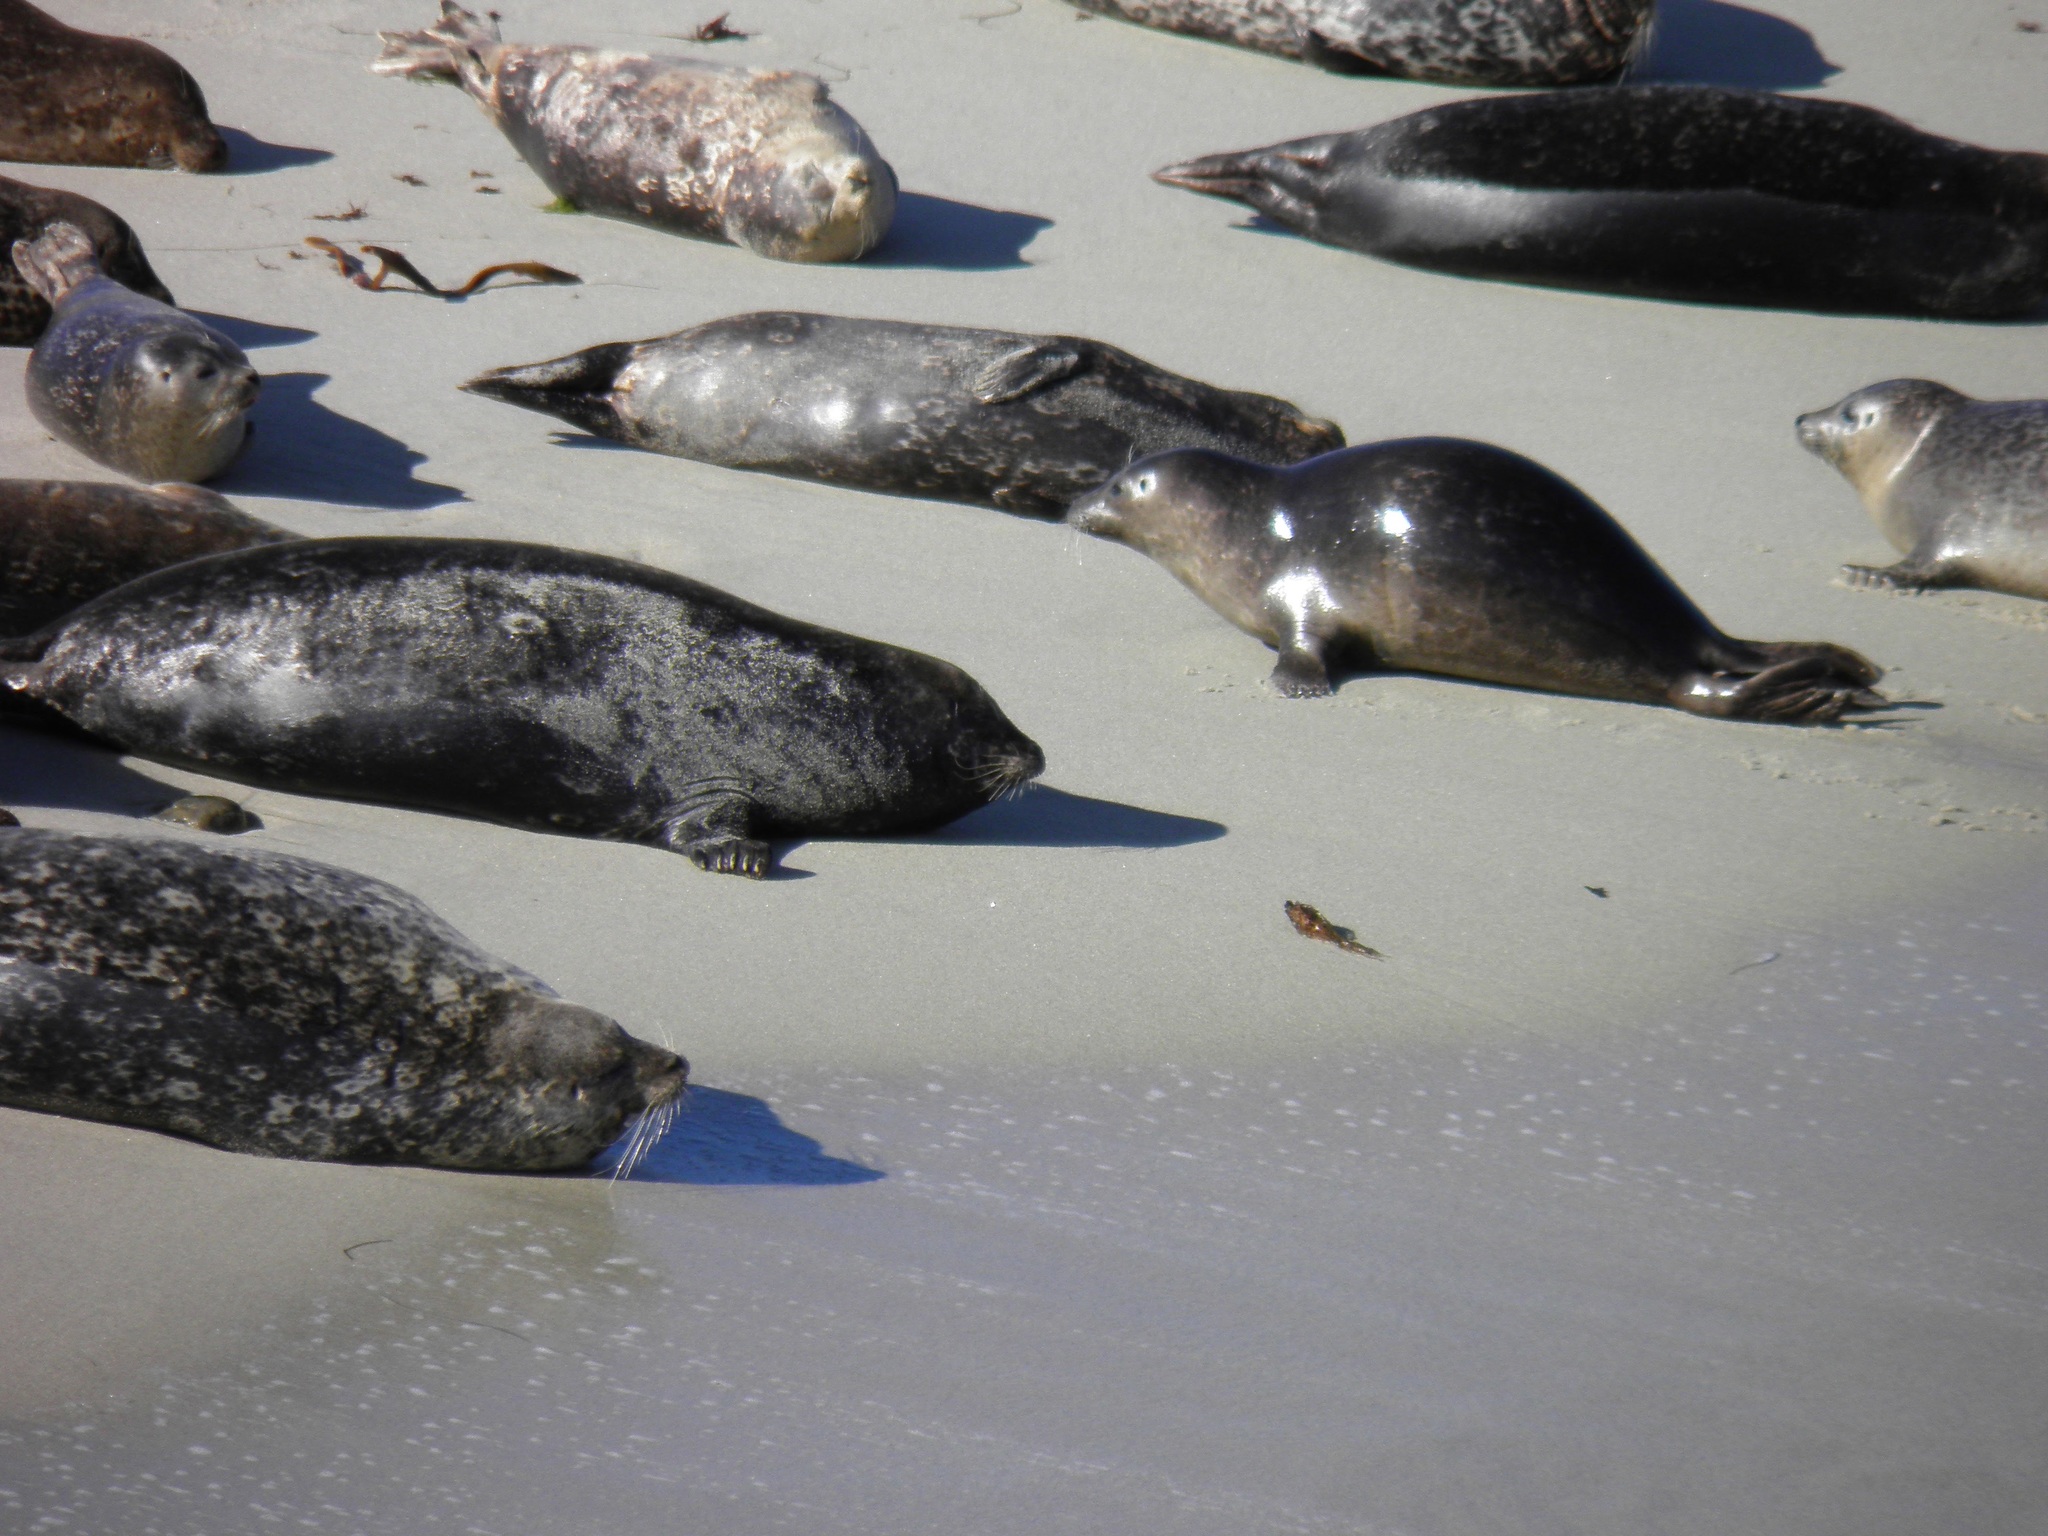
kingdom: Animalia
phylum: Chordata
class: Mammalia
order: Carnivora
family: Phocidae
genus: Phoca
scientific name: Phoca vitulina
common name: Harbor seal
